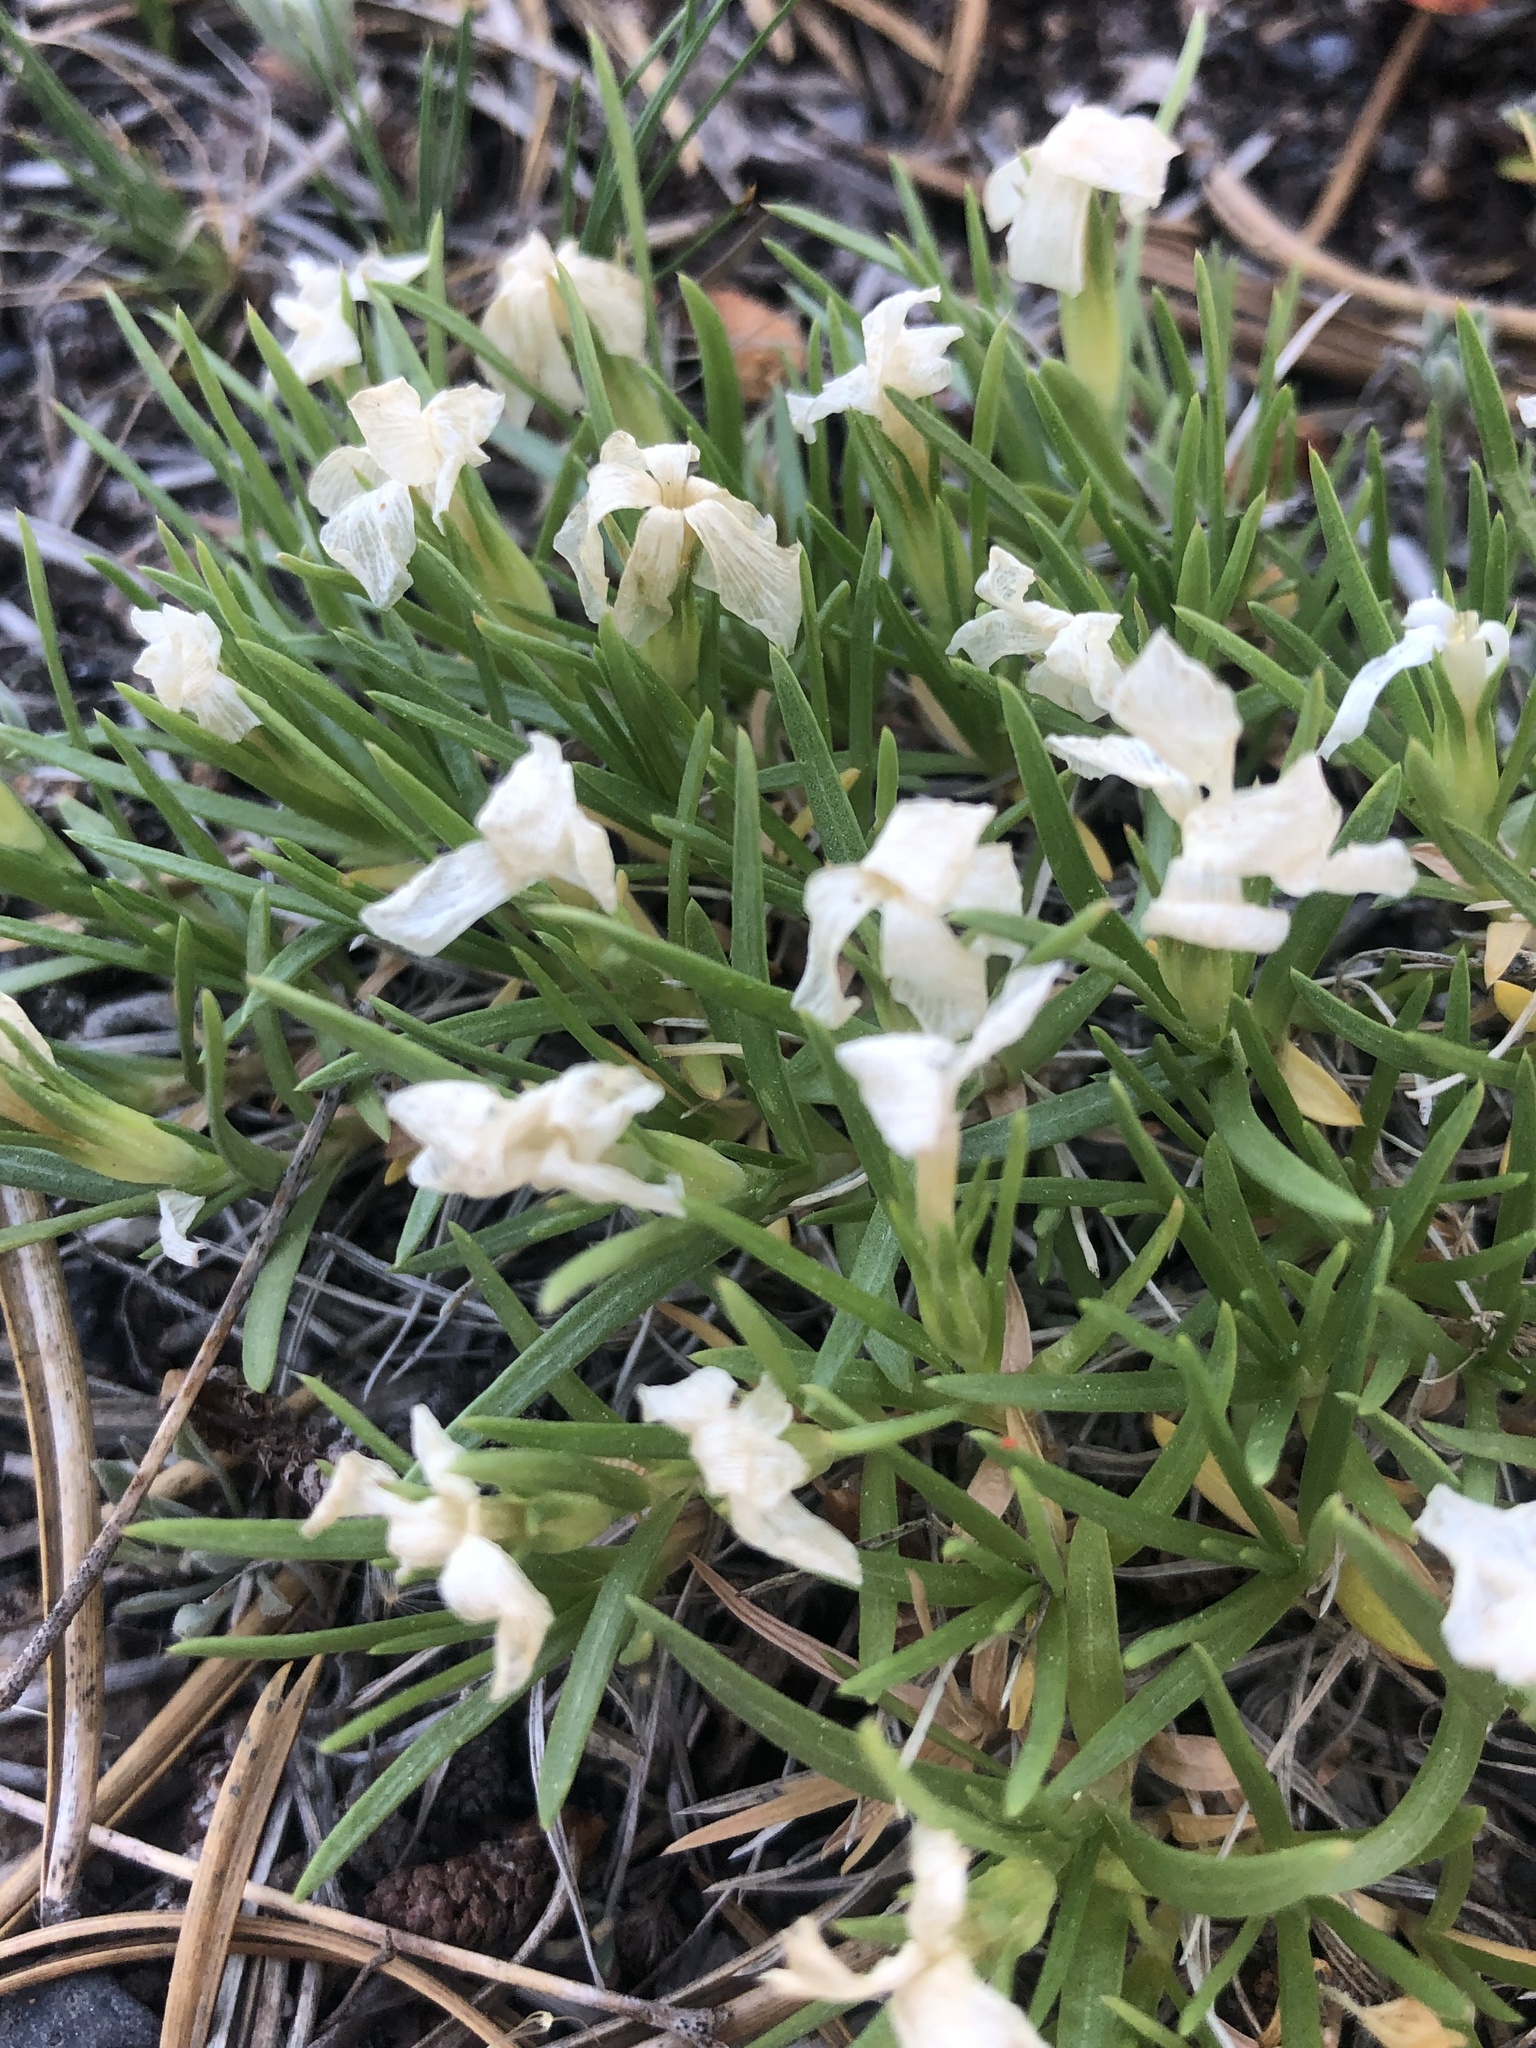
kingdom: Plantae
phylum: Tracheophyta
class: Magnoliopsida
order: Ericales
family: Polemoniaceae
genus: Phlox
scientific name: Phlox multiflora
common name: Rocky mountain phlox
